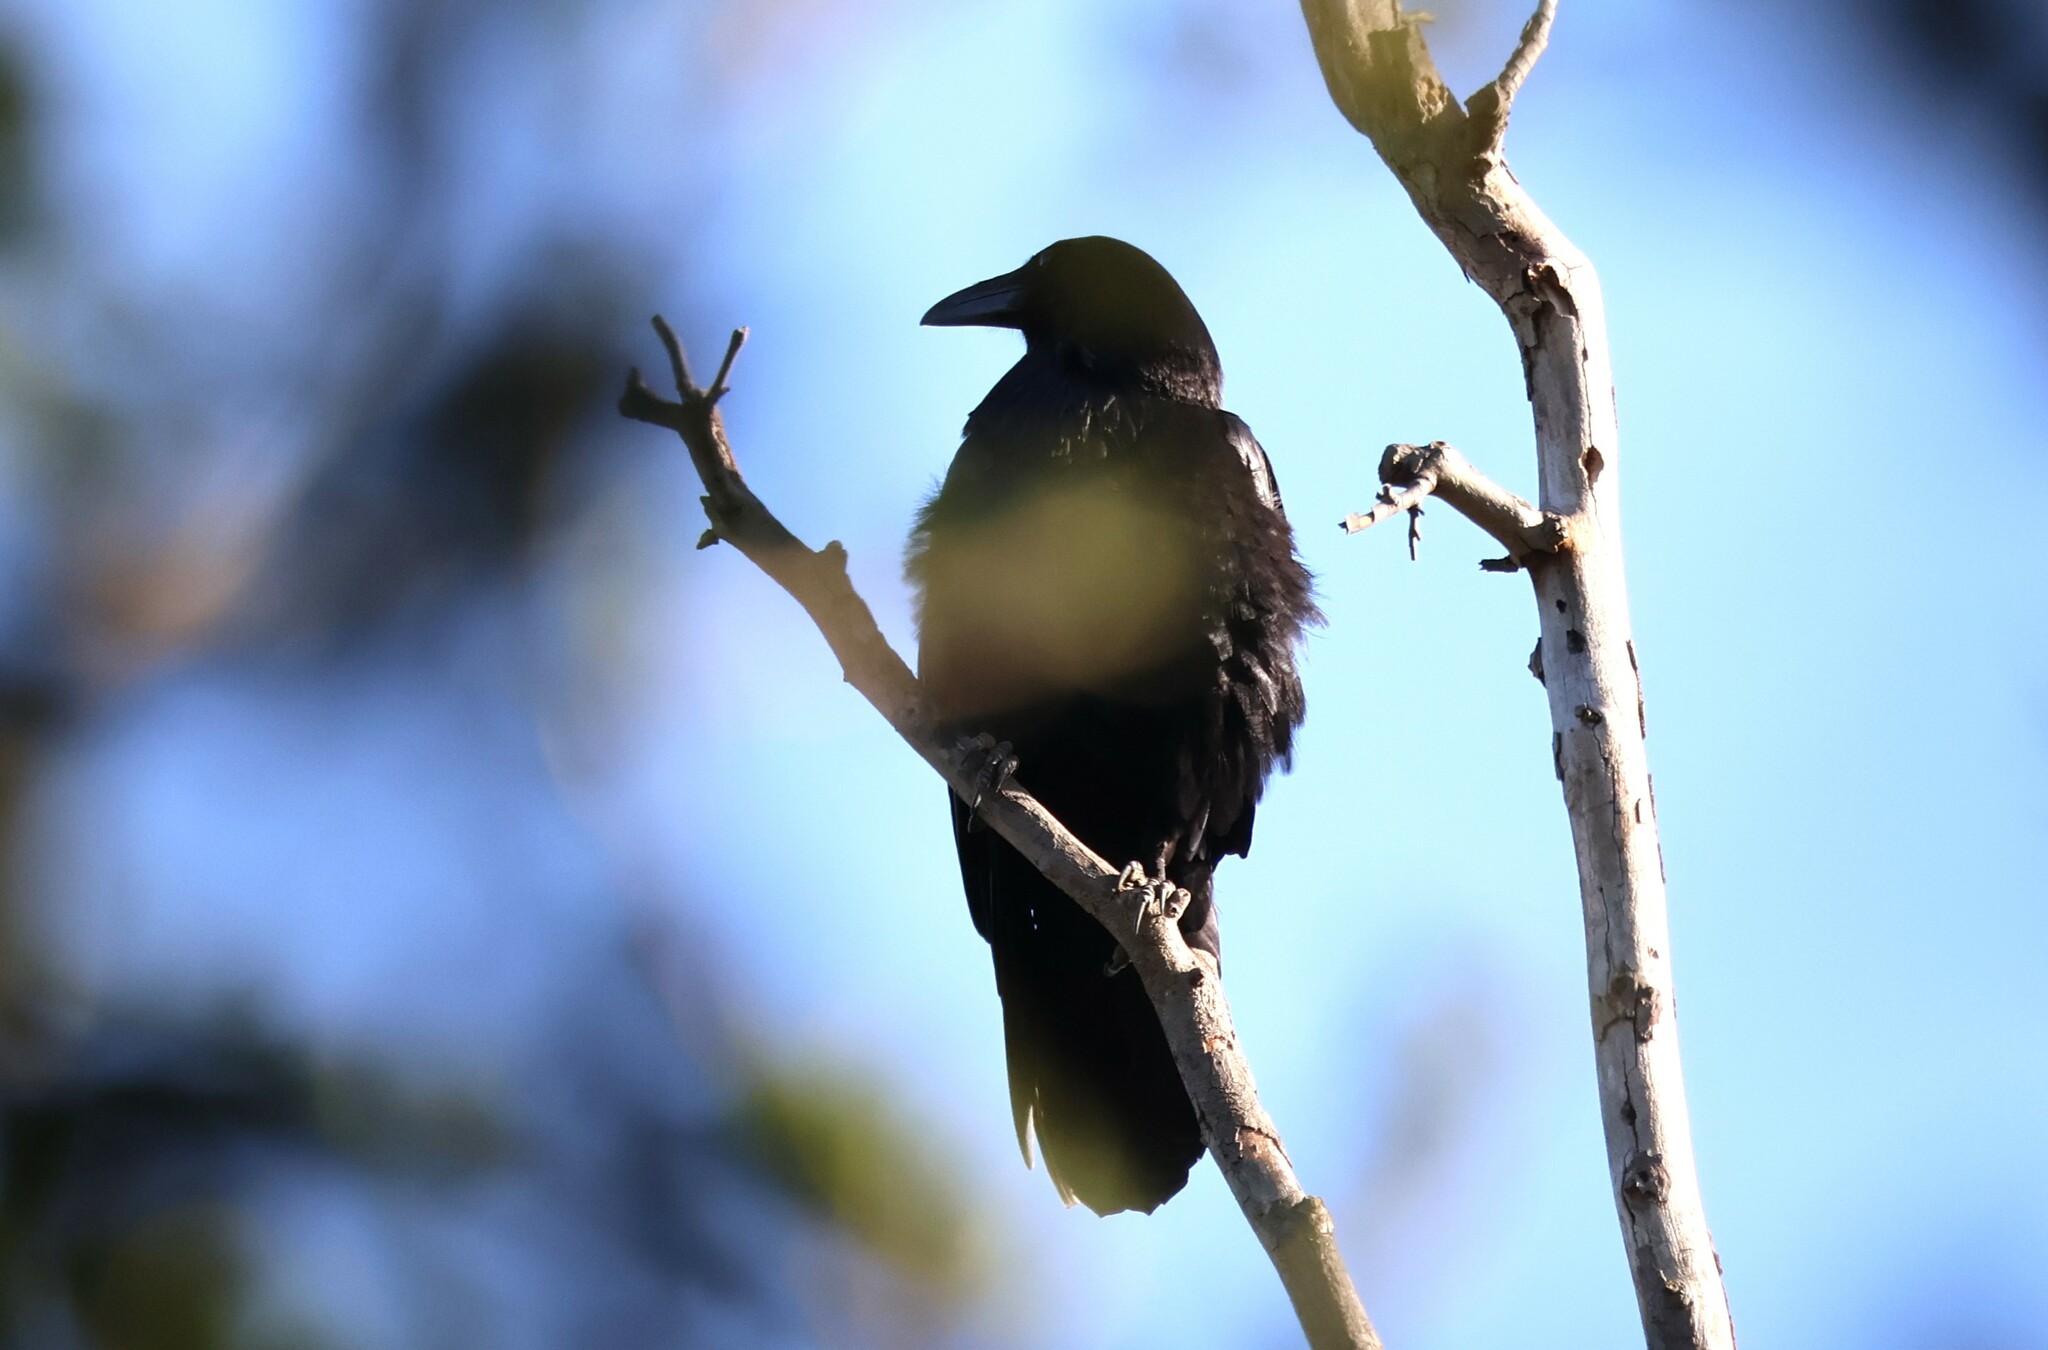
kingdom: Animalia
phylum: Chordata
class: Aves
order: Passeriformes
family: Corvidae
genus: Corvus
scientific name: Corvus corax
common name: Common raven
